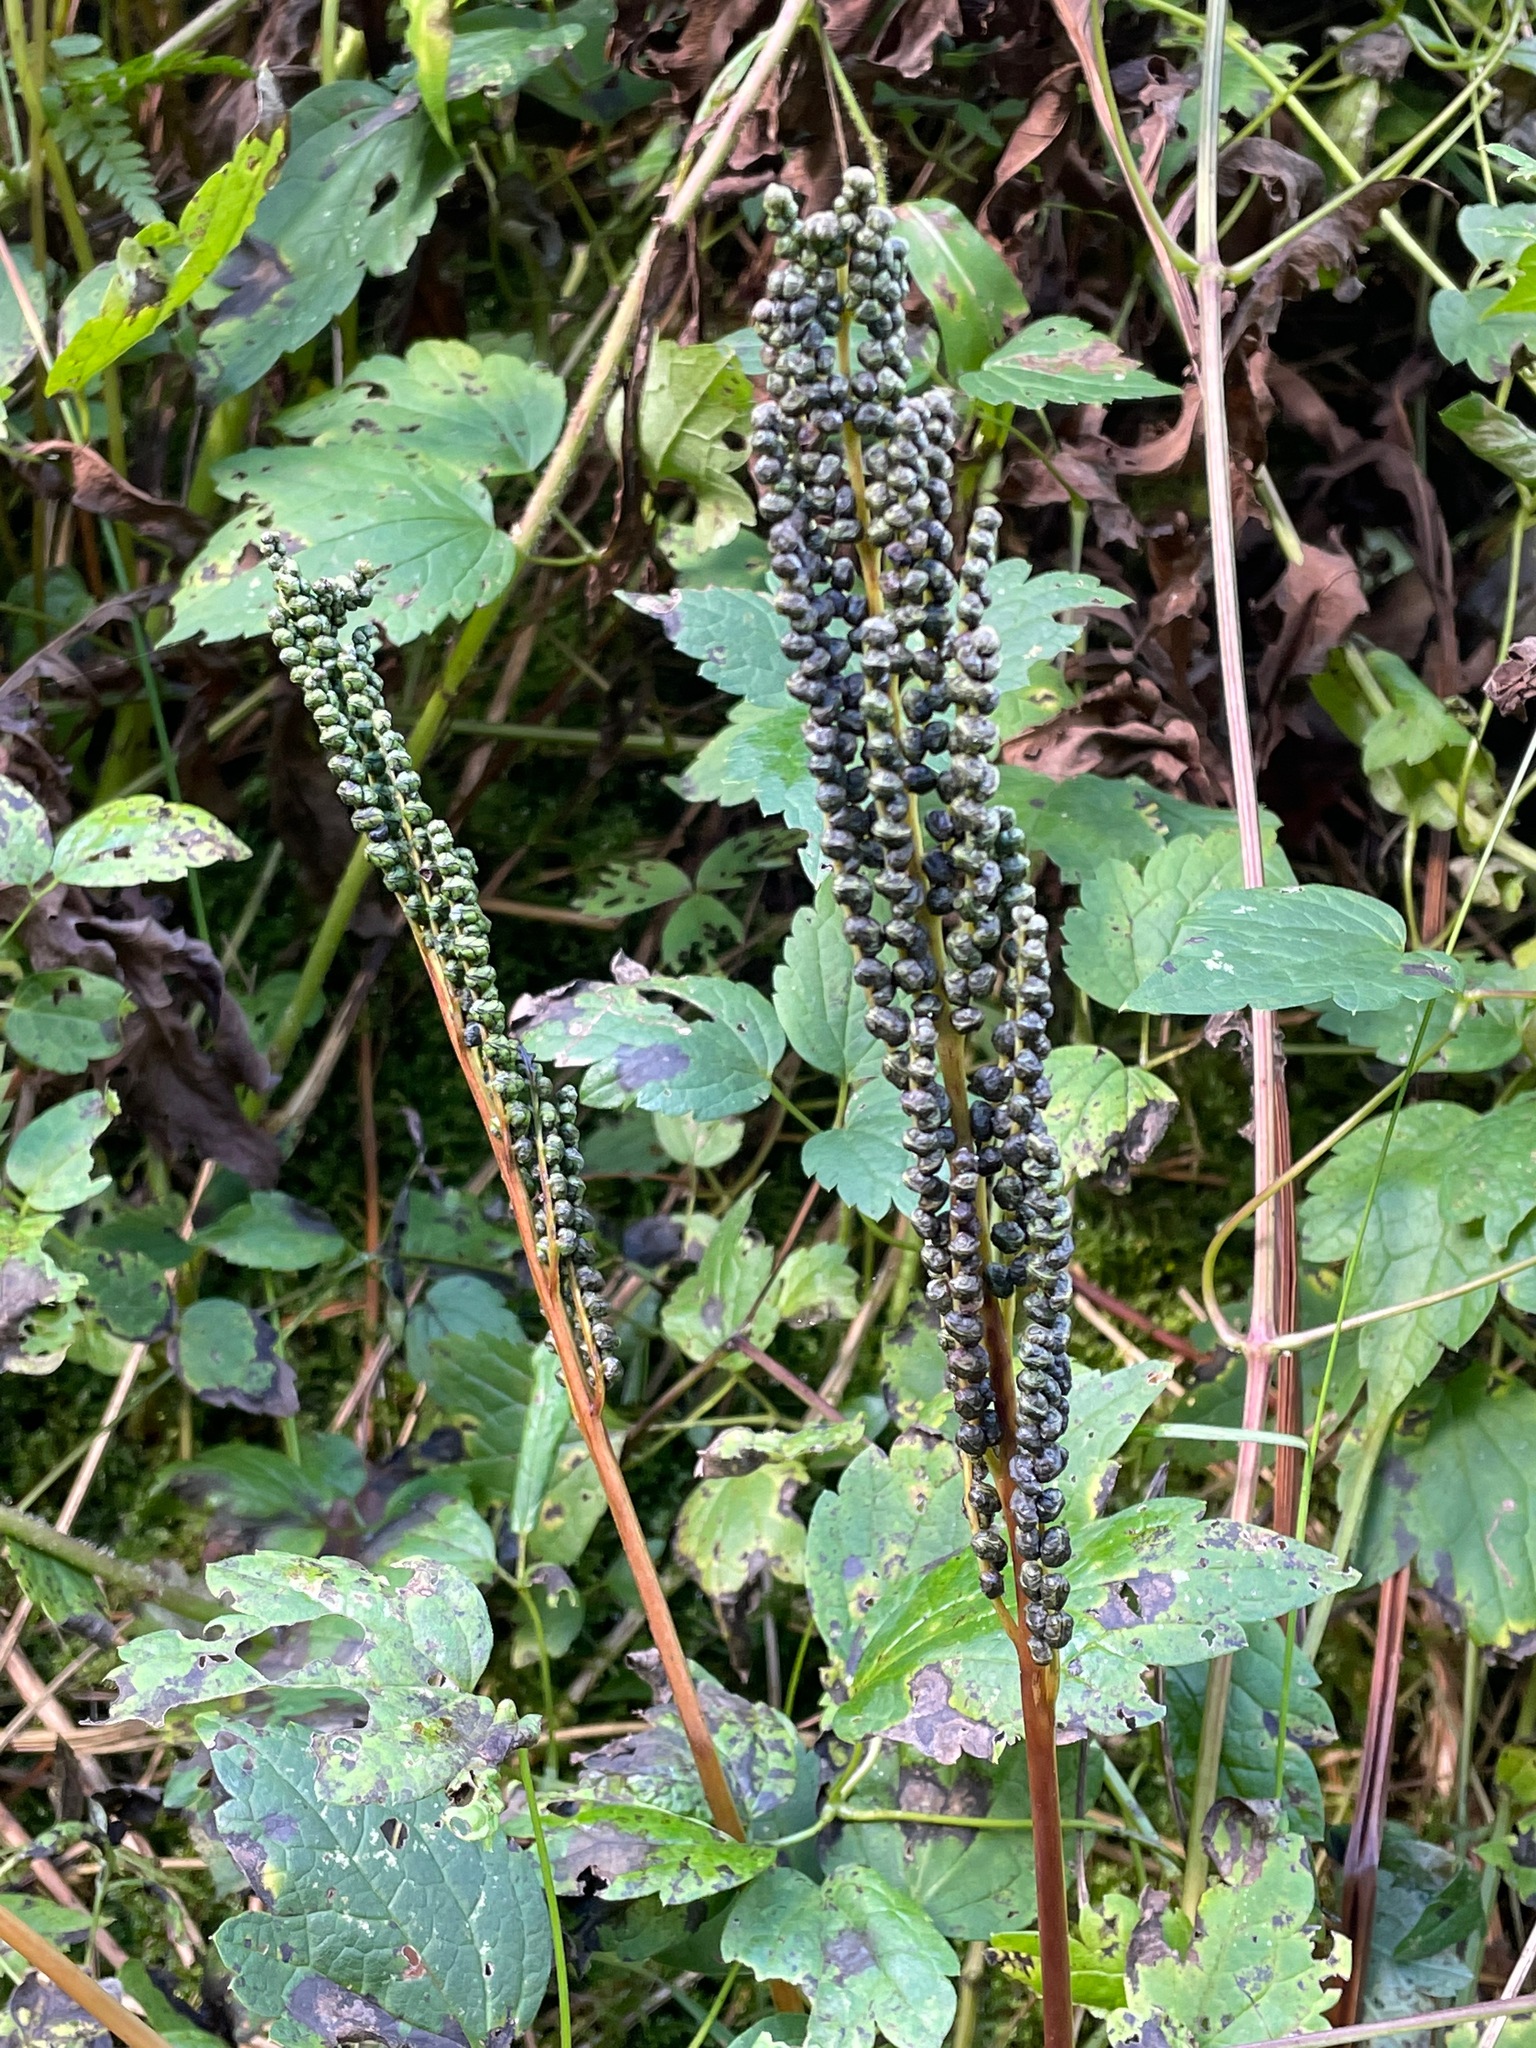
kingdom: Plantae
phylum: Tracheophyta
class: Polypodiopsida
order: Polypodiales
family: Onocleaceae
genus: Onoclea
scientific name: Onoclea sensibilis
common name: Sensitive fern
